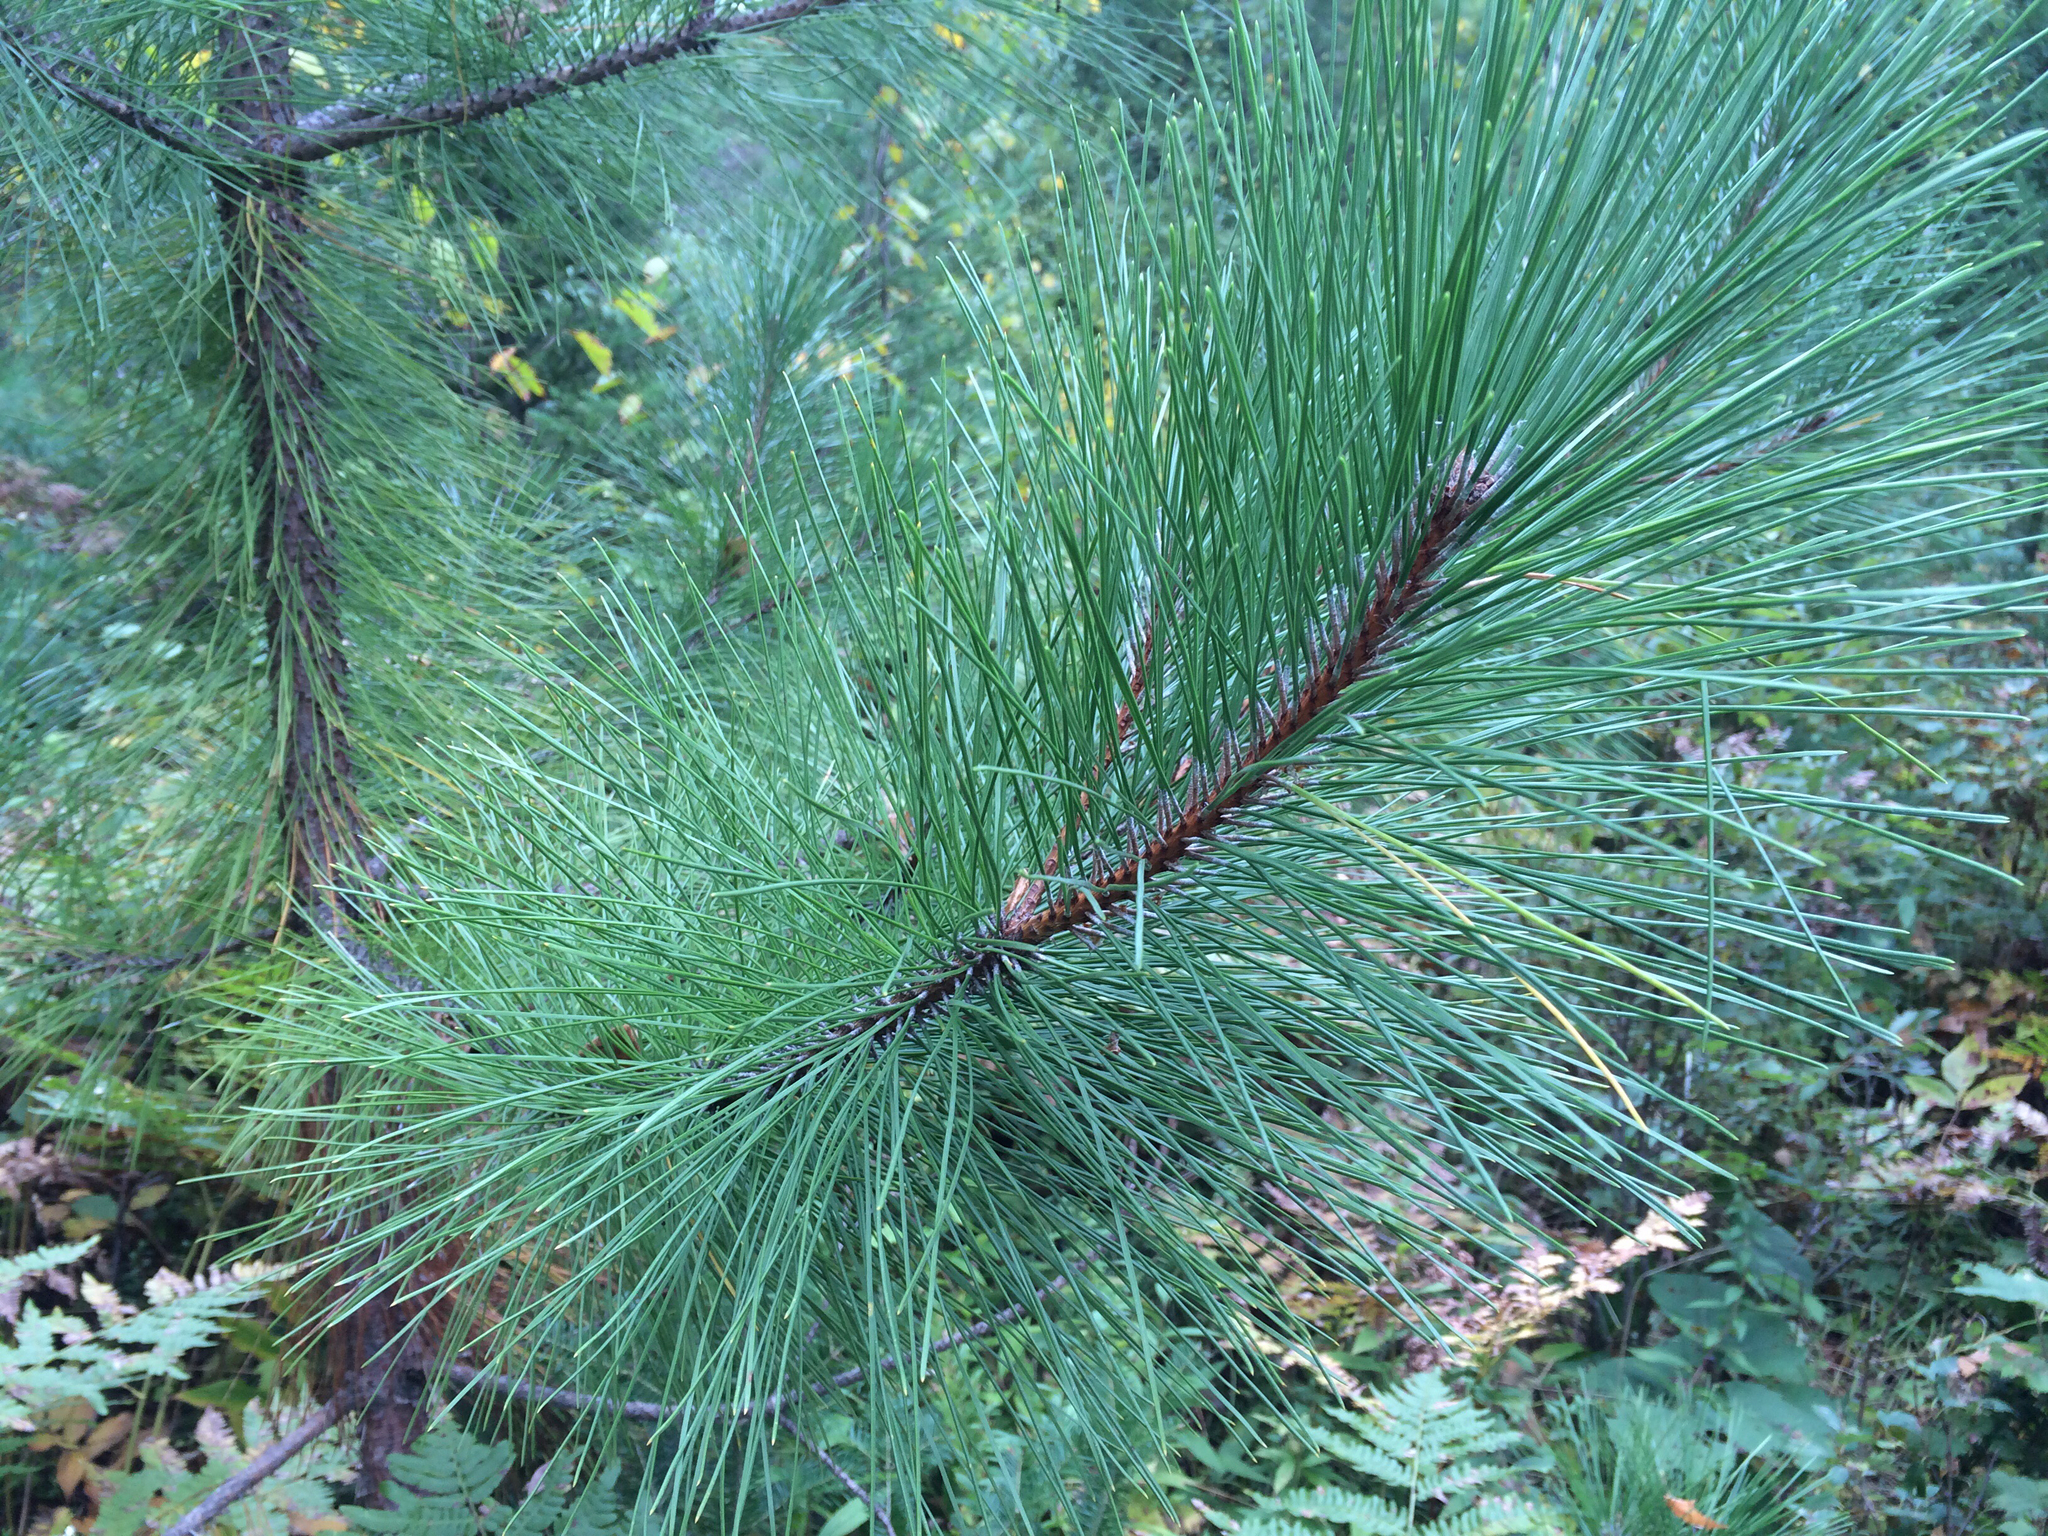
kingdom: Plantae
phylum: Tracheophyta
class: Pinopsida
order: Pinales
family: Pinaceae
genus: Pinus
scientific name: Pinus resinosa
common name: Norway pine
